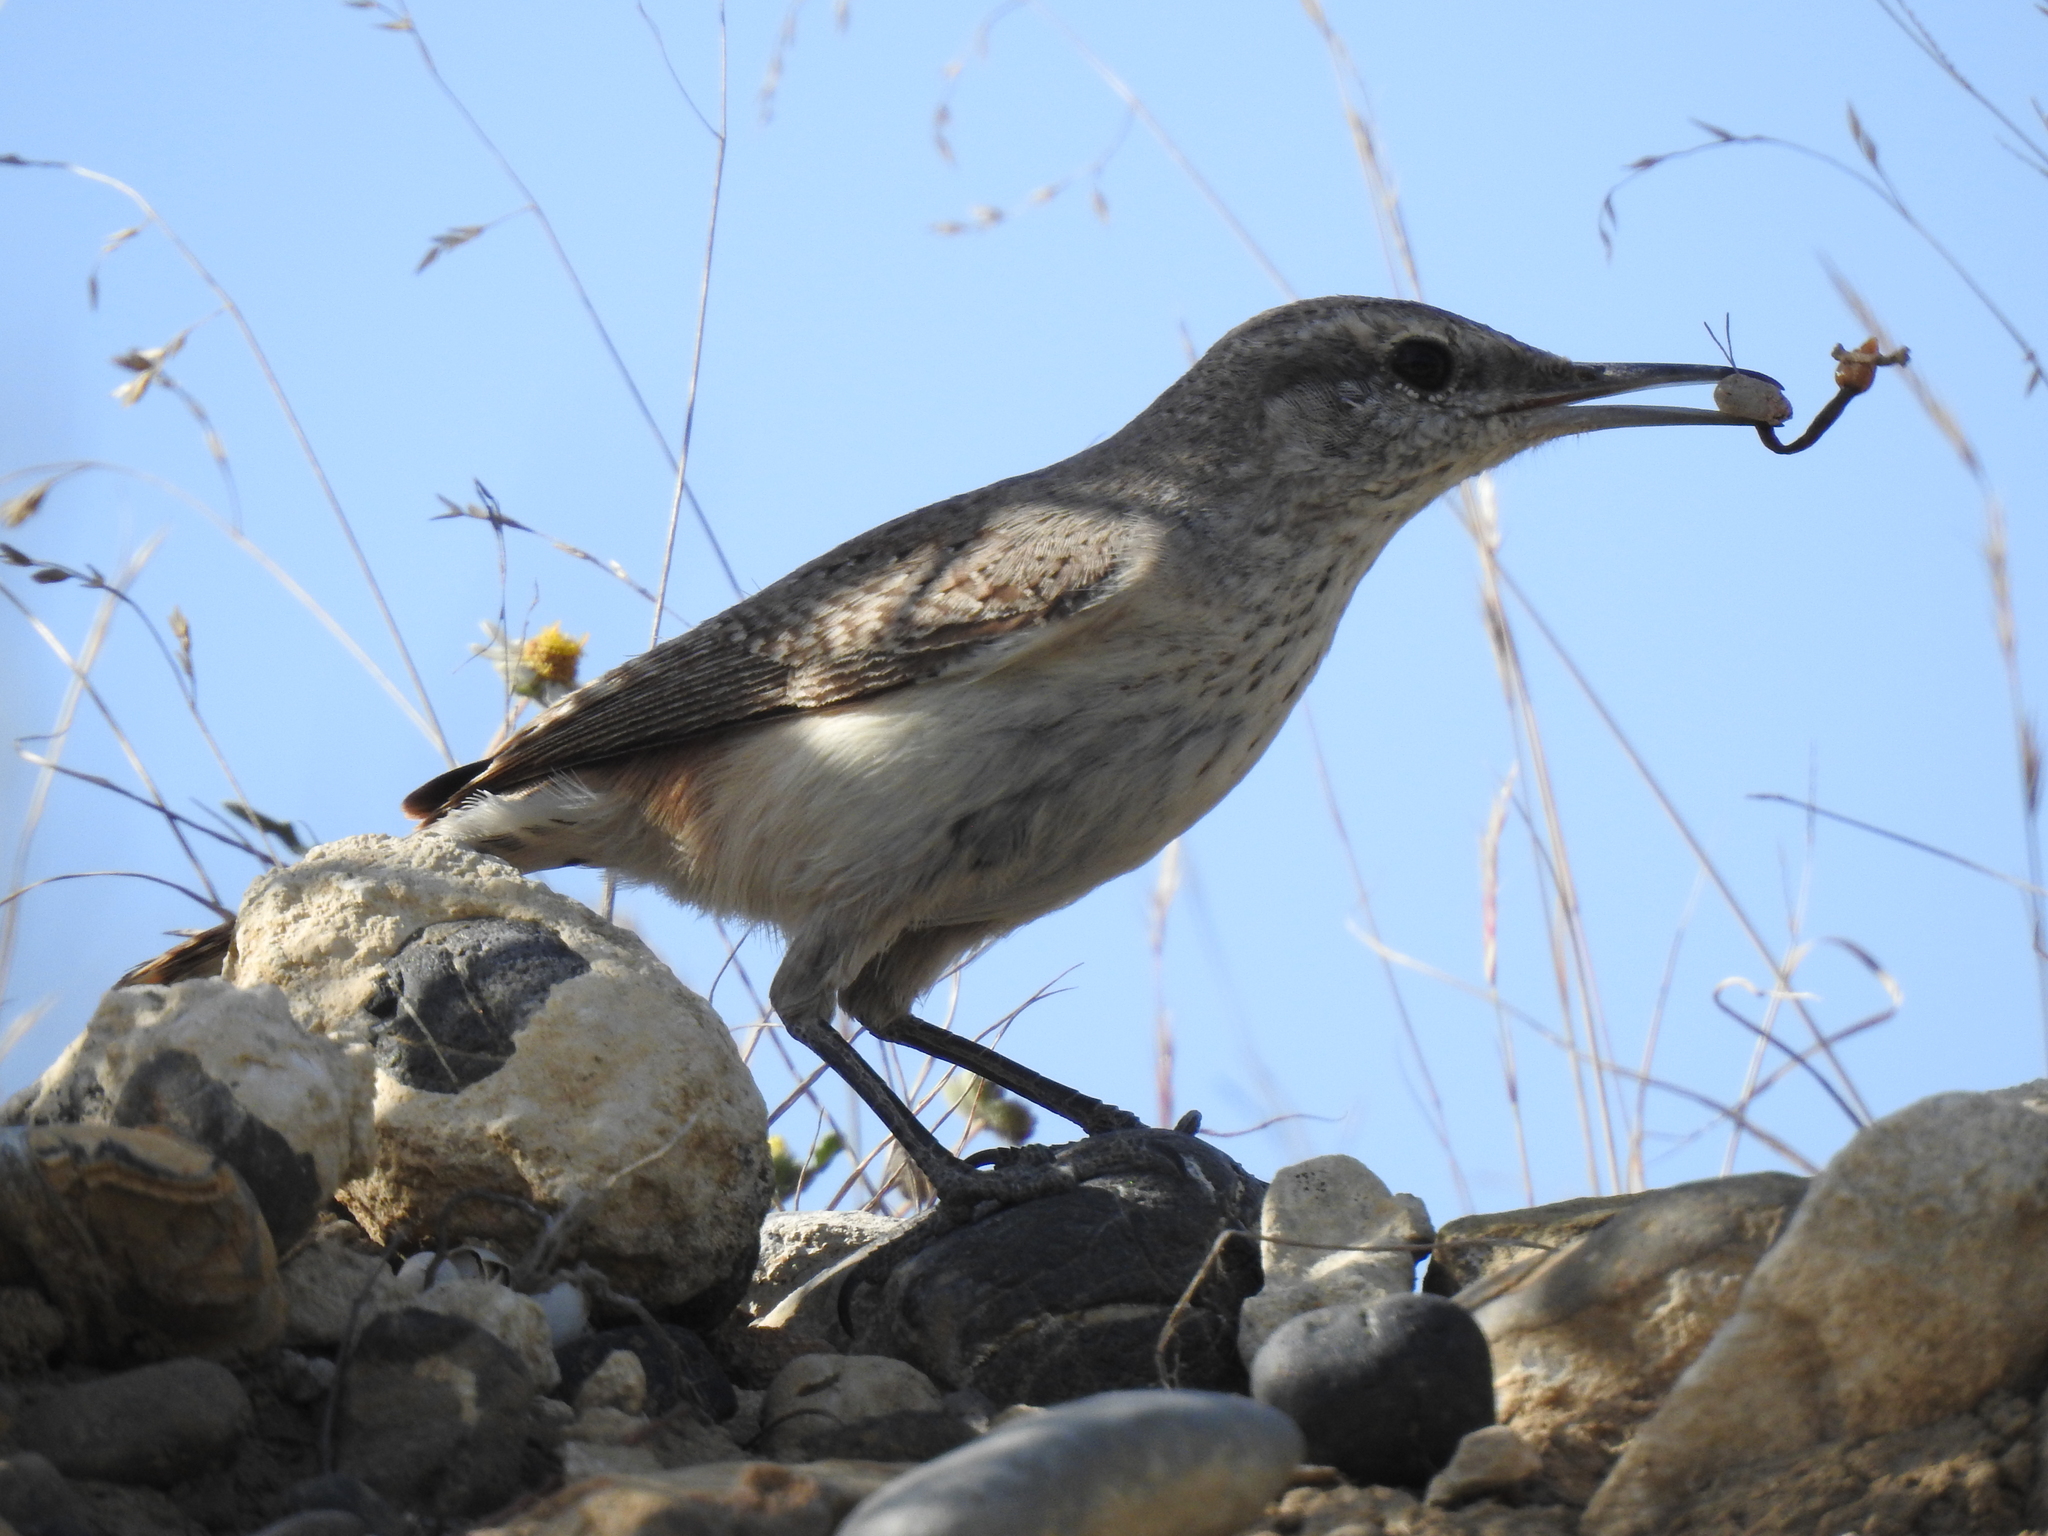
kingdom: Animalia
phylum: Chordata
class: Aves
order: Passeriformes
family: Troglodytidae
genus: Salpinctes
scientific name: Salpinctes obsoletus
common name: Rock wren
